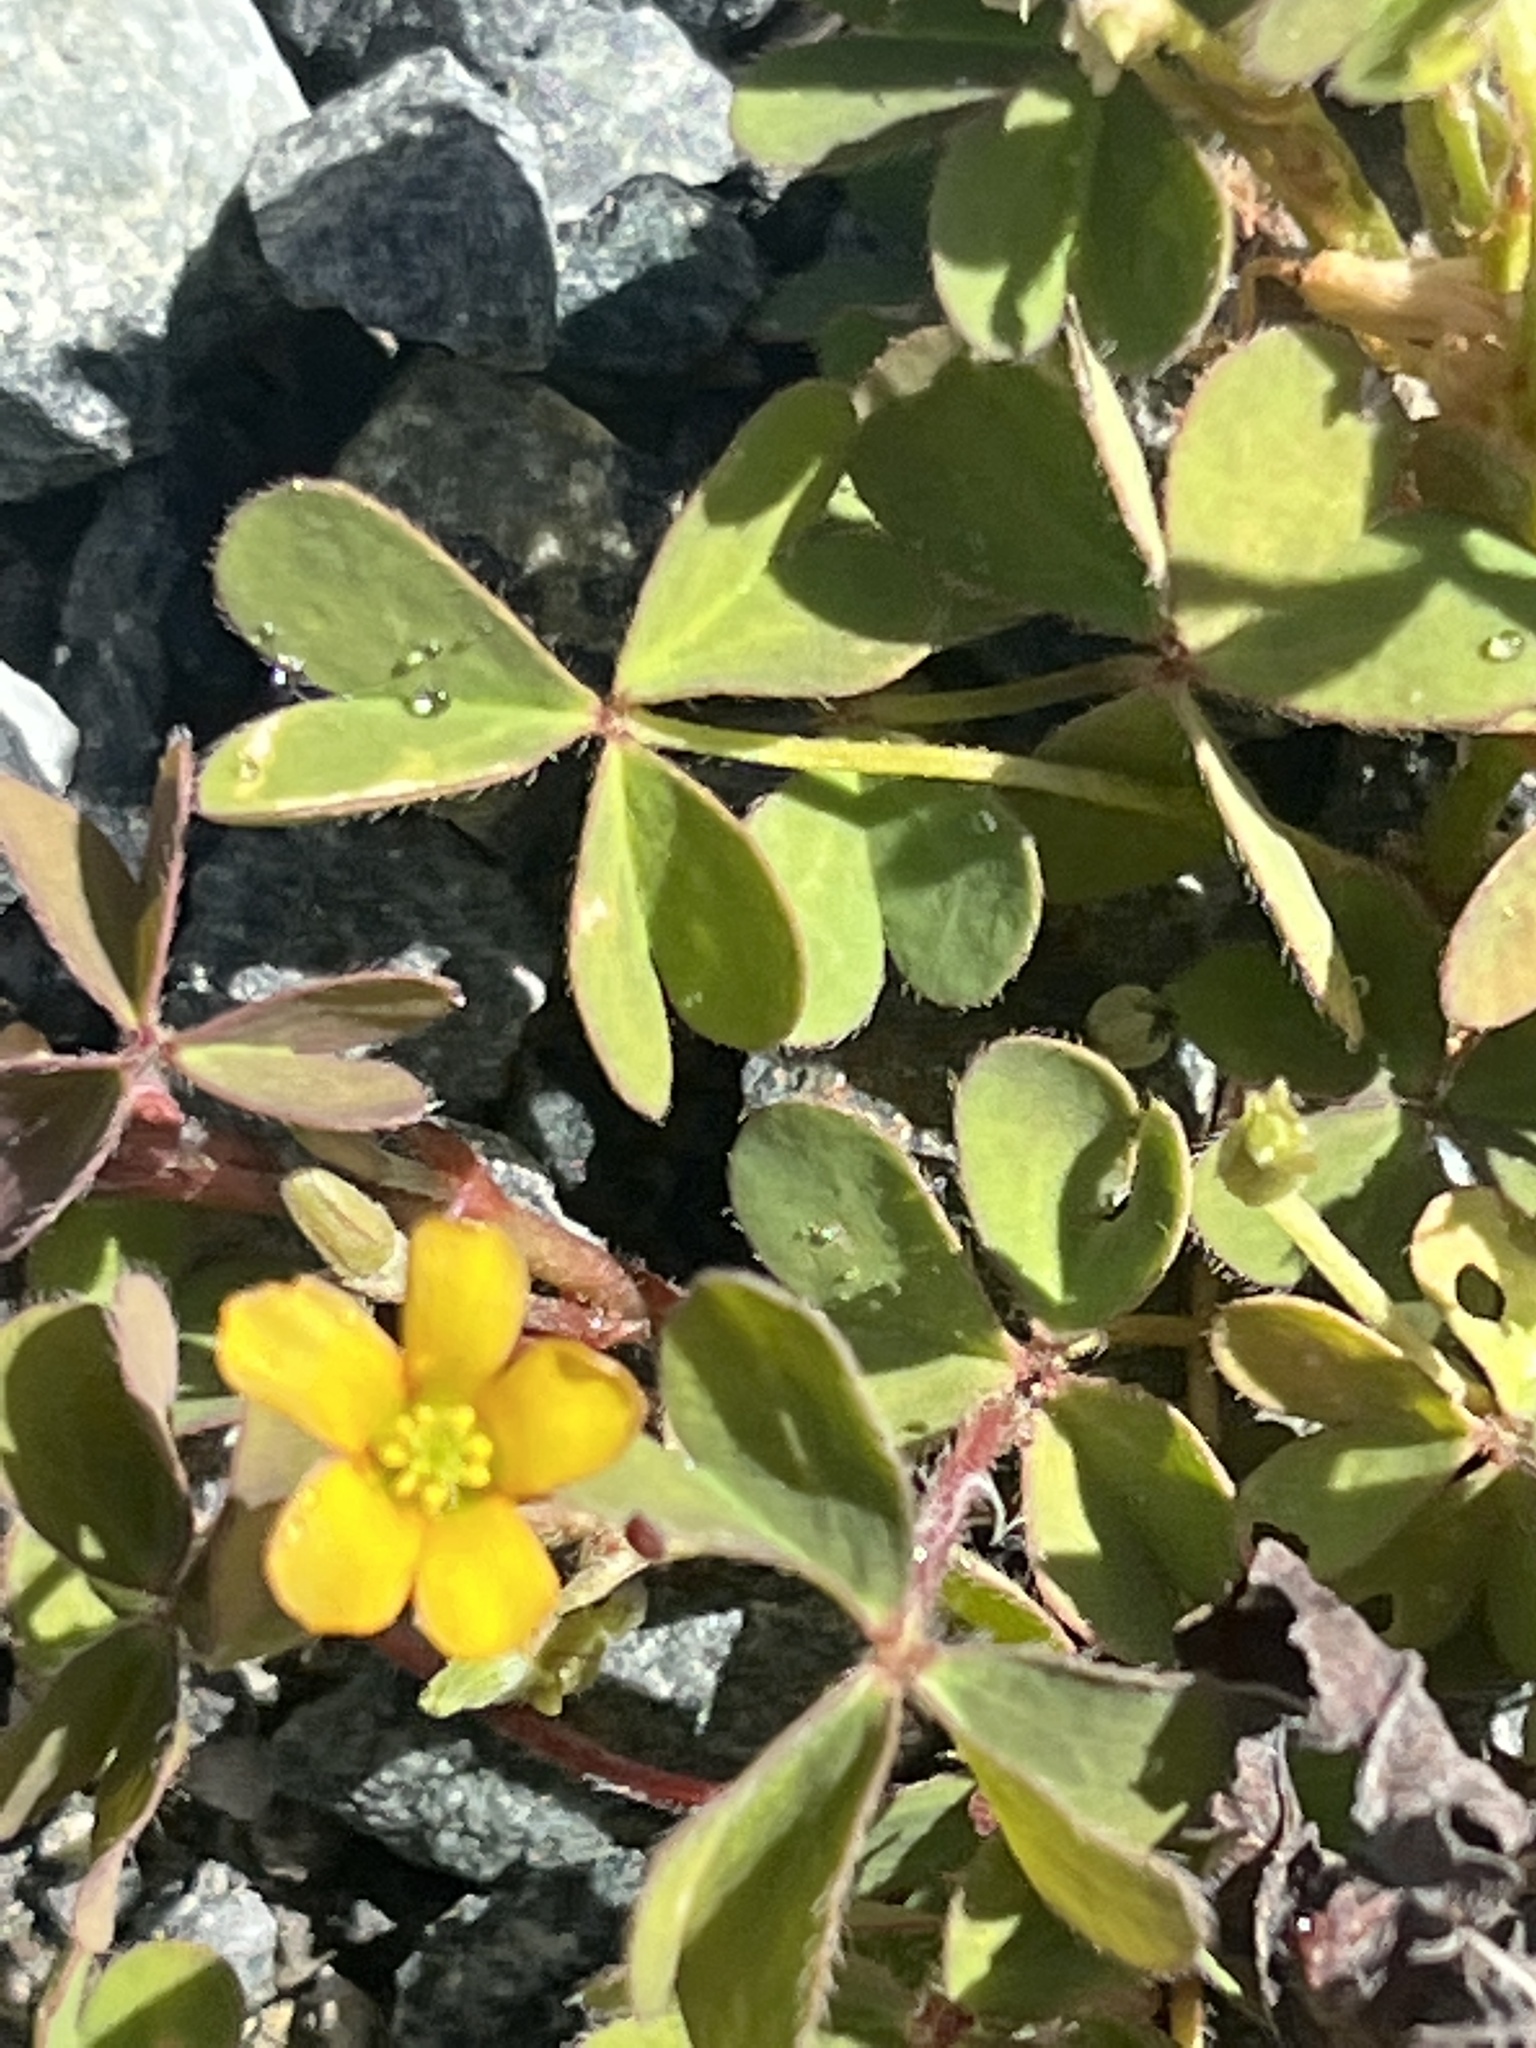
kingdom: Plantae
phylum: Tracheophyta
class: Magnoliopsida
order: Oxalidales
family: Oxalidaceae
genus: Oxalis
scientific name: Oxalis corniculata
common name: Procumbent yellow-sorrel
